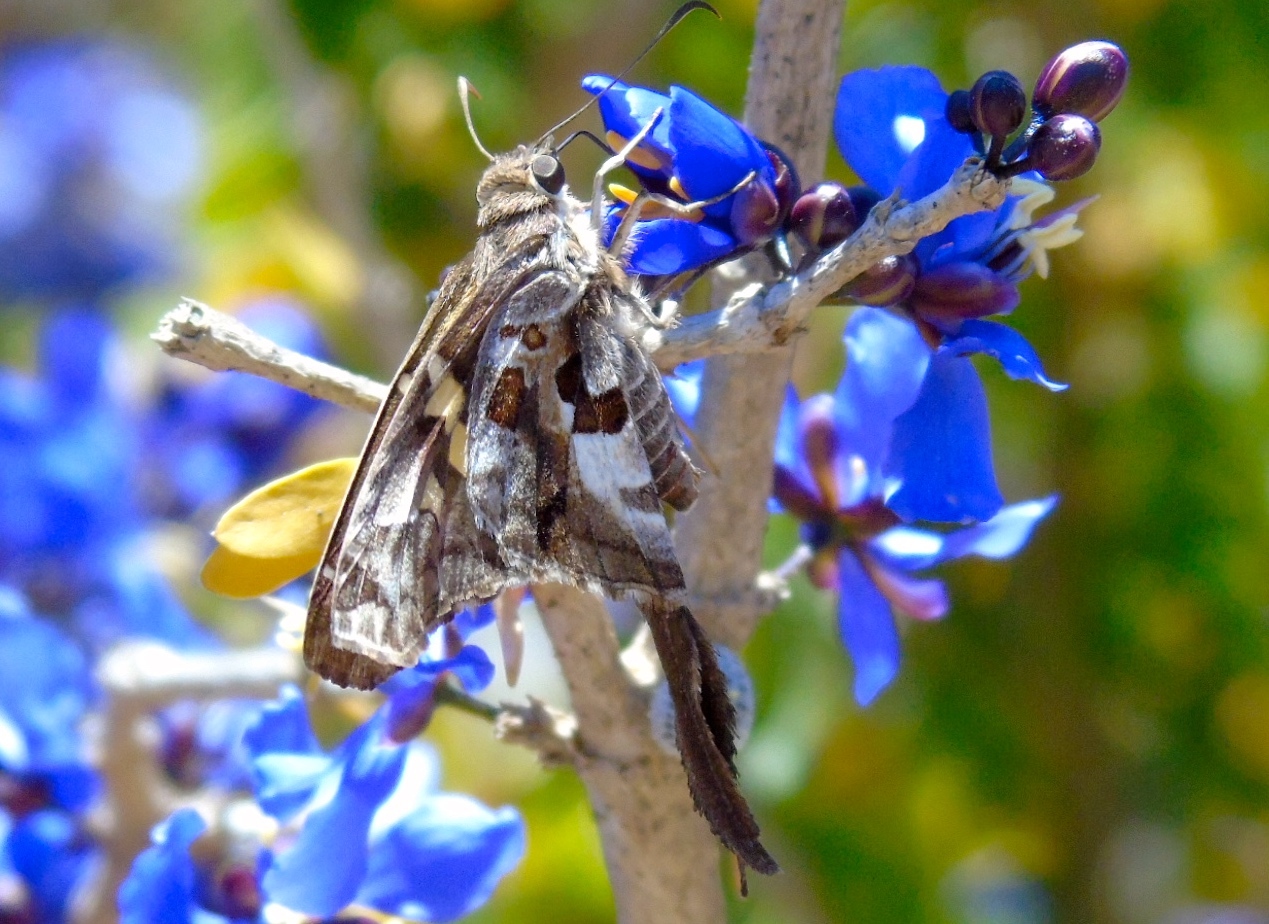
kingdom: Animalia
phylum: Arthropoda
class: Insecta
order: Lepidoptera
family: Hesperiidae
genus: Chioides
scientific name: Chioides zilpa
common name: Zilpa longtail
